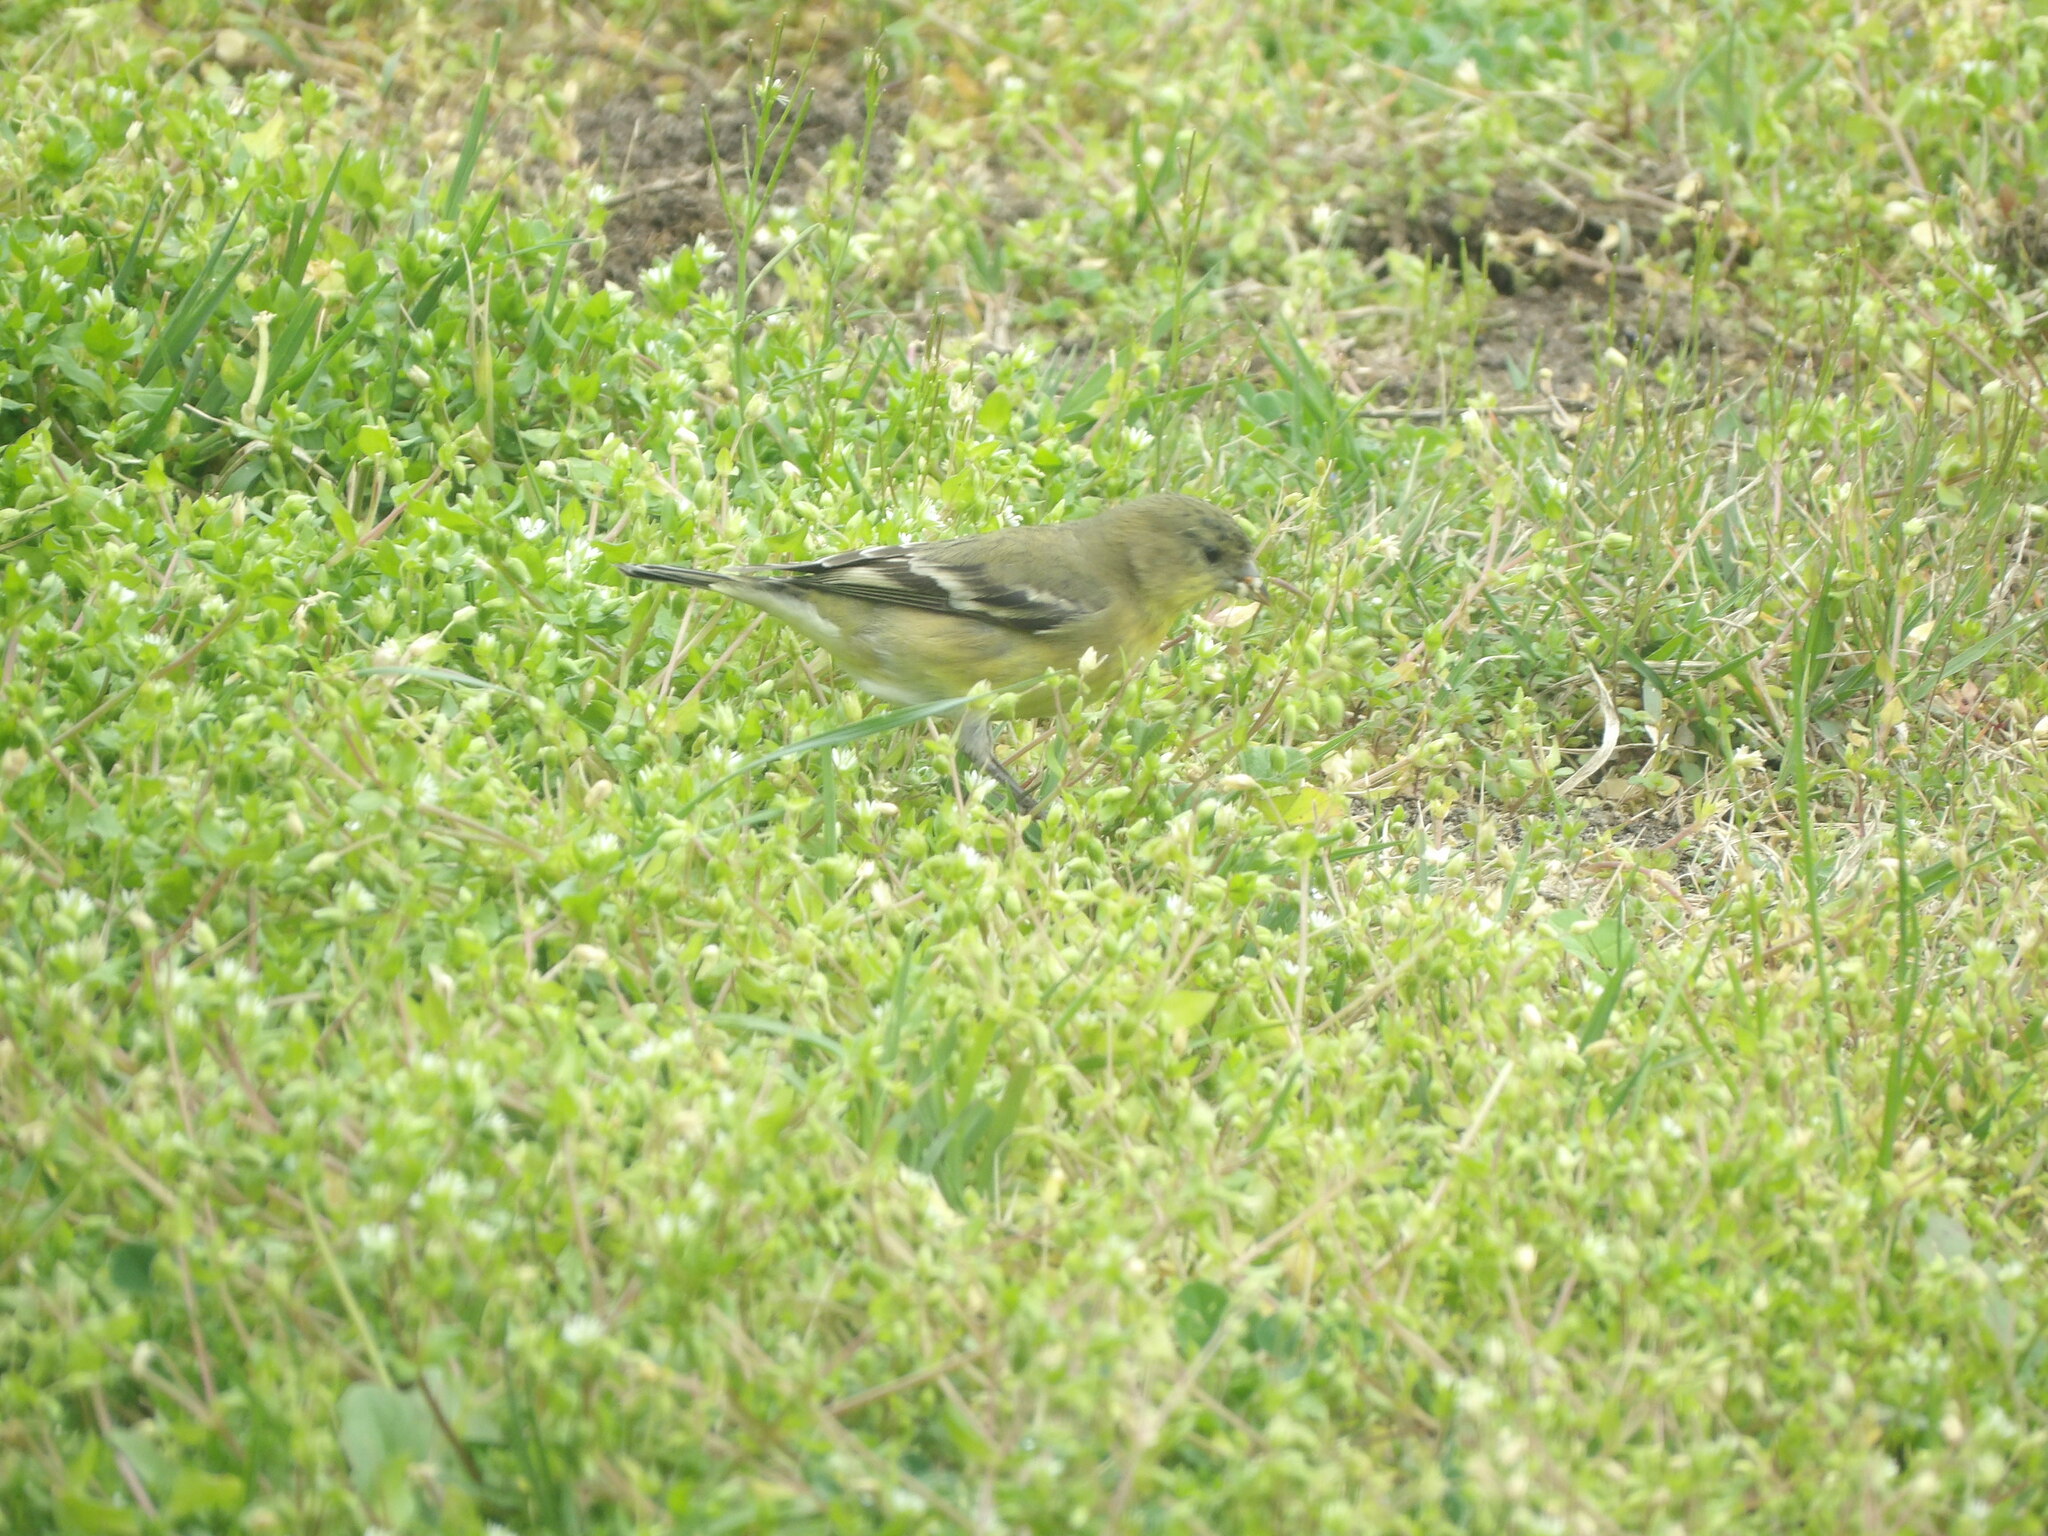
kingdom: Animalia
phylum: Chordata
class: Aves
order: Passeriformes
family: Fringillidae
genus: Spinus
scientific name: Spinus psaltria
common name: Lesser goldfinch
